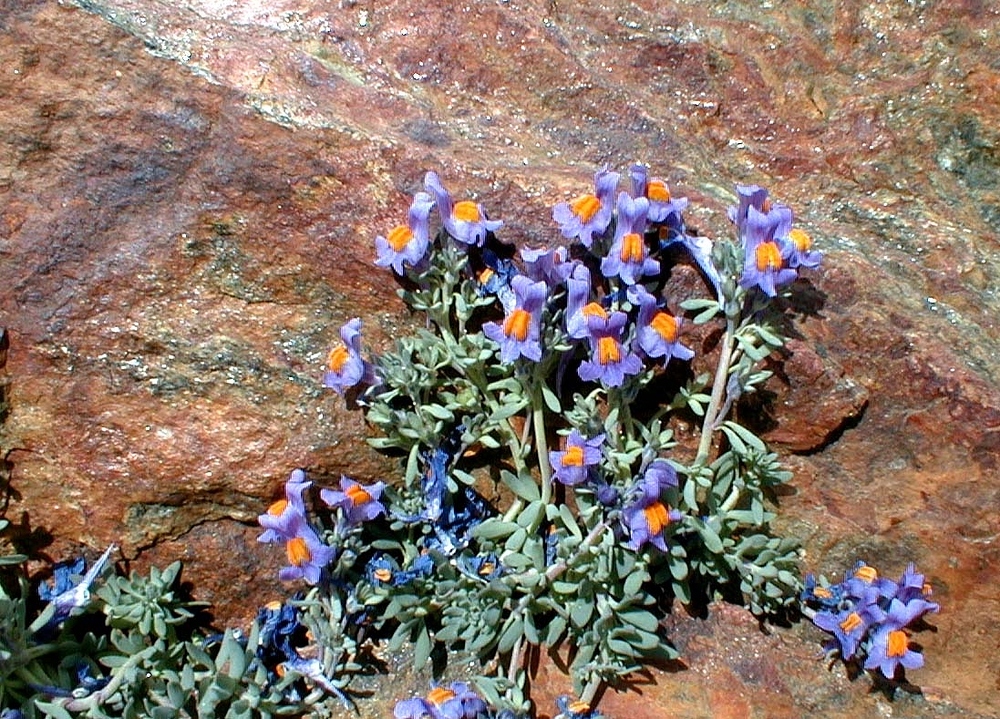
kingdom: Plantae
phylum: Tracheophyta
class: Magnoliopsida
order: Lamiales
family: Plantaginaceae
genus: Linaria
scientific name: Linaria alpina
